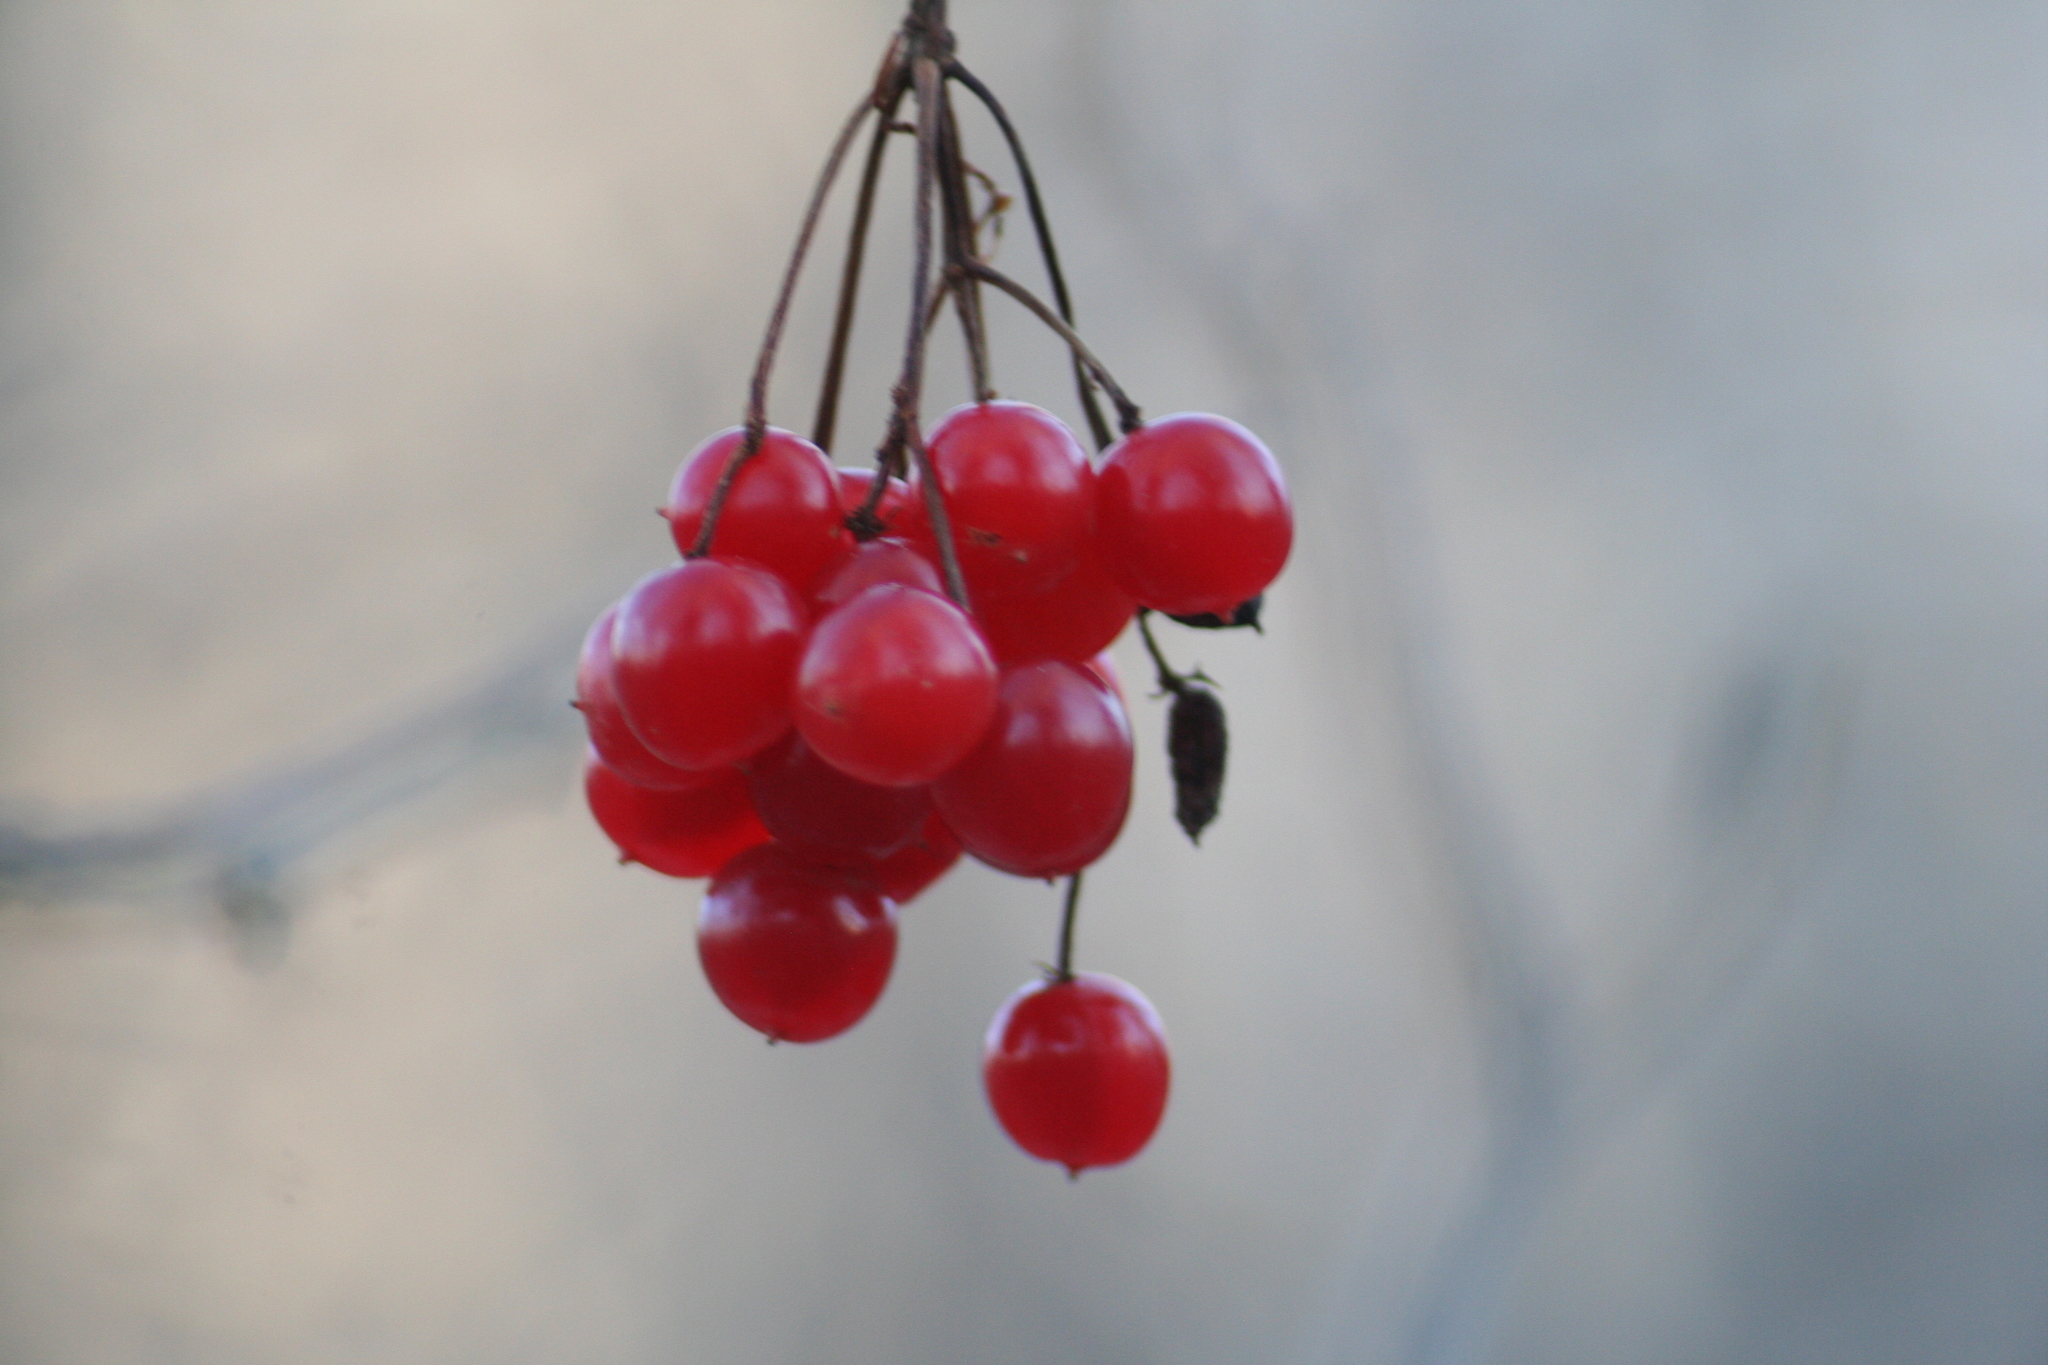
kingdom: Plantae
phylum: Tracheophyta
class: Magnoliopsida
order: Dipsacales
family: Viburnaceae
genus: Viburnum
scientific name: Viburnum opulus
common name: Guelder-rose
